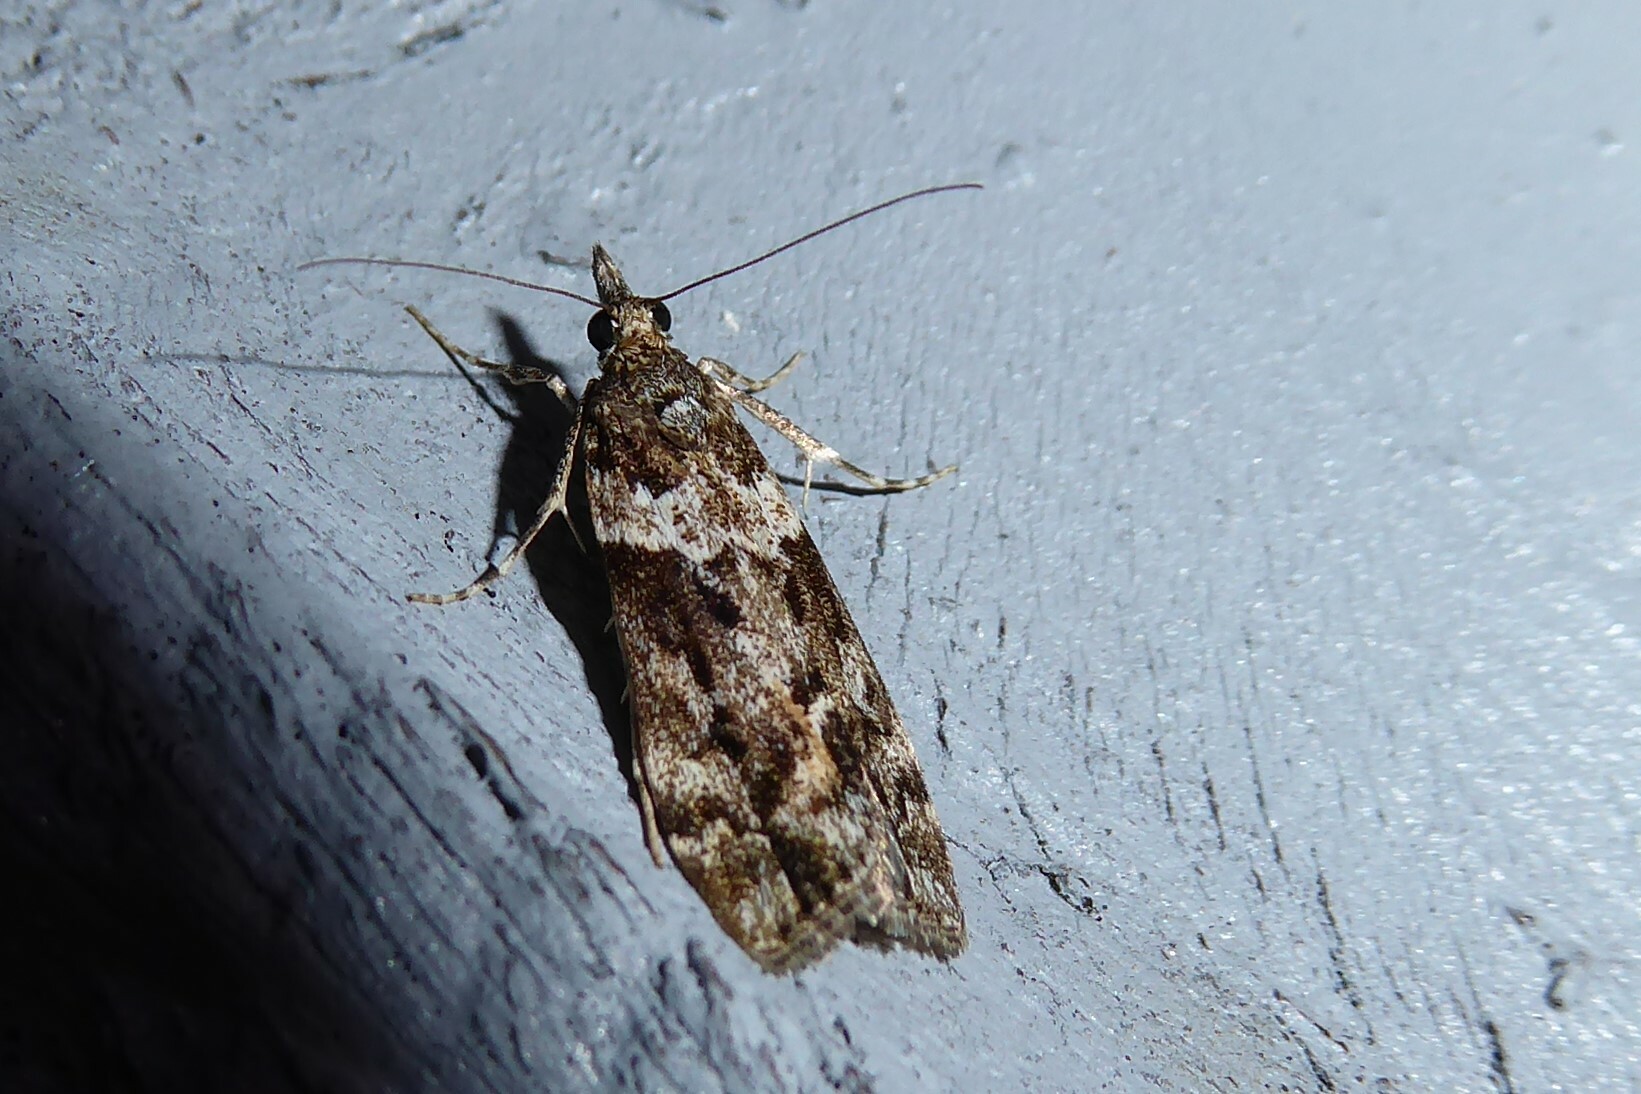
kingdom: Animalia
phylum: Arthropoda
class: Insecta
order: Lepidoptera
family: Crambidae
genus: Eudonia
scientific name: Eudonia submarginalis
